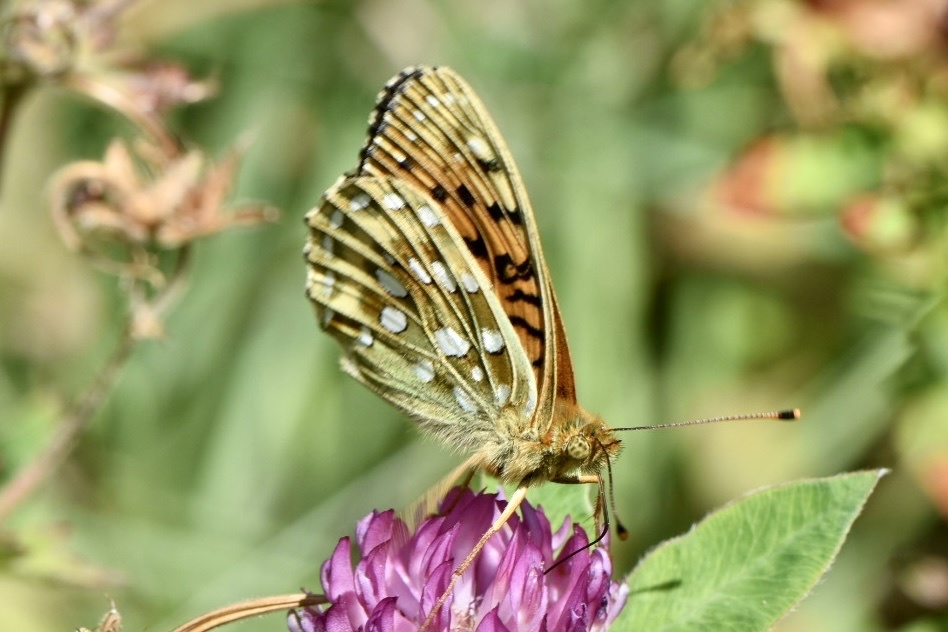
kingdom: Animalia
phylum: Arthropoda
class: Insecta
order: Lepidoptera
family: Nymphalidae
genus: Speyeria
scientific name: Speyeria aglaja
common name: Dark green fritillary
